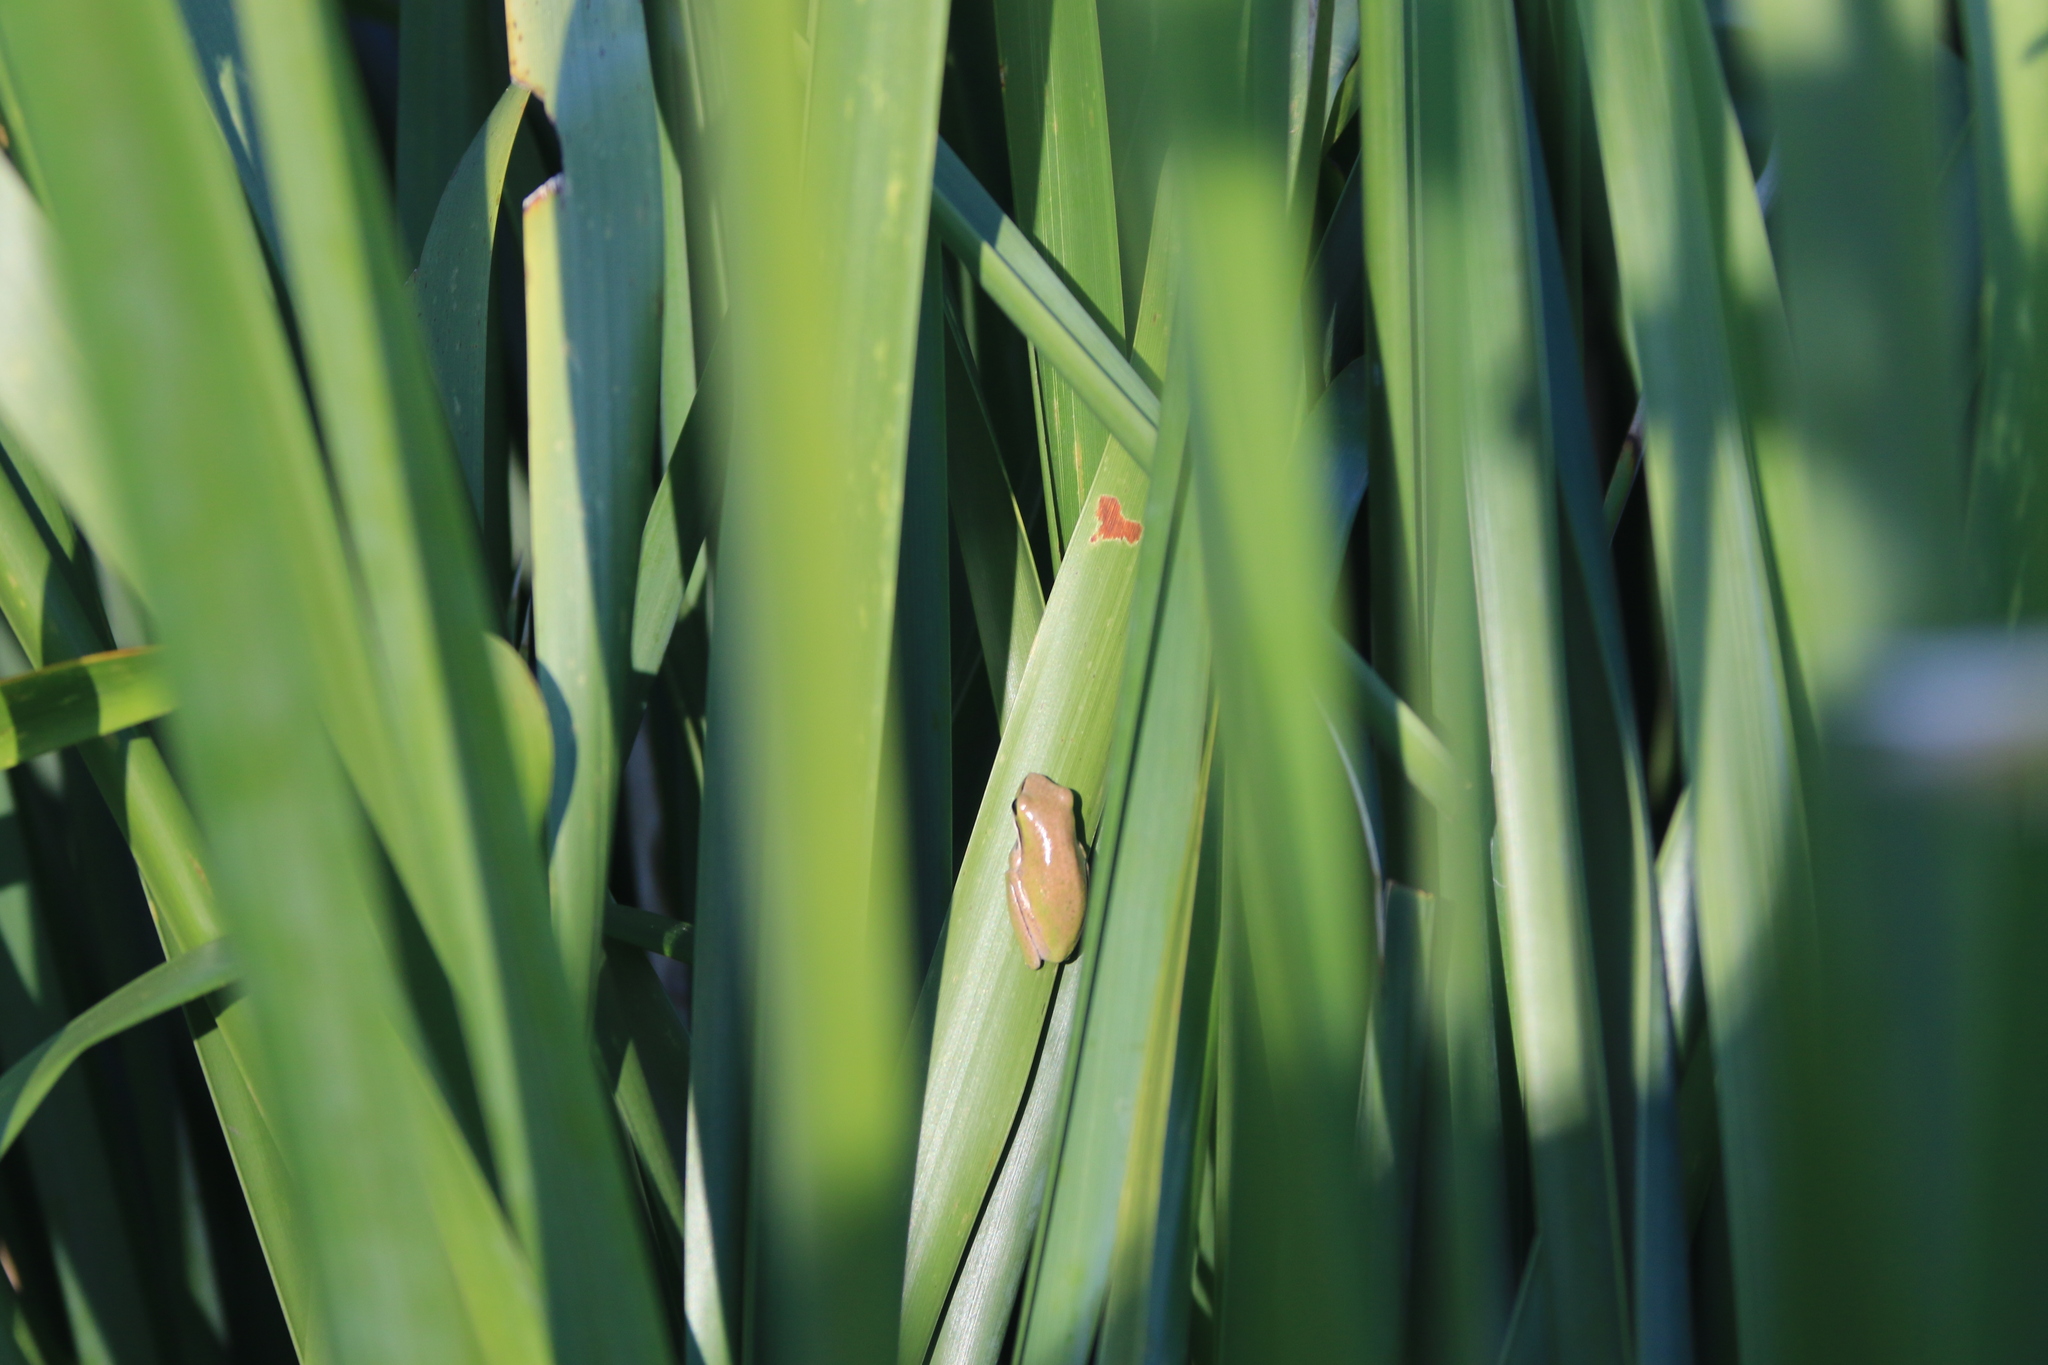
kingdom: Animalia
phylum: Chordata
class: Amphibia
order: Anura
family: Pelodryadidae
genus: Litoria
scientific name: Litoria fallax
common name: Eastern dwarf treefrog
